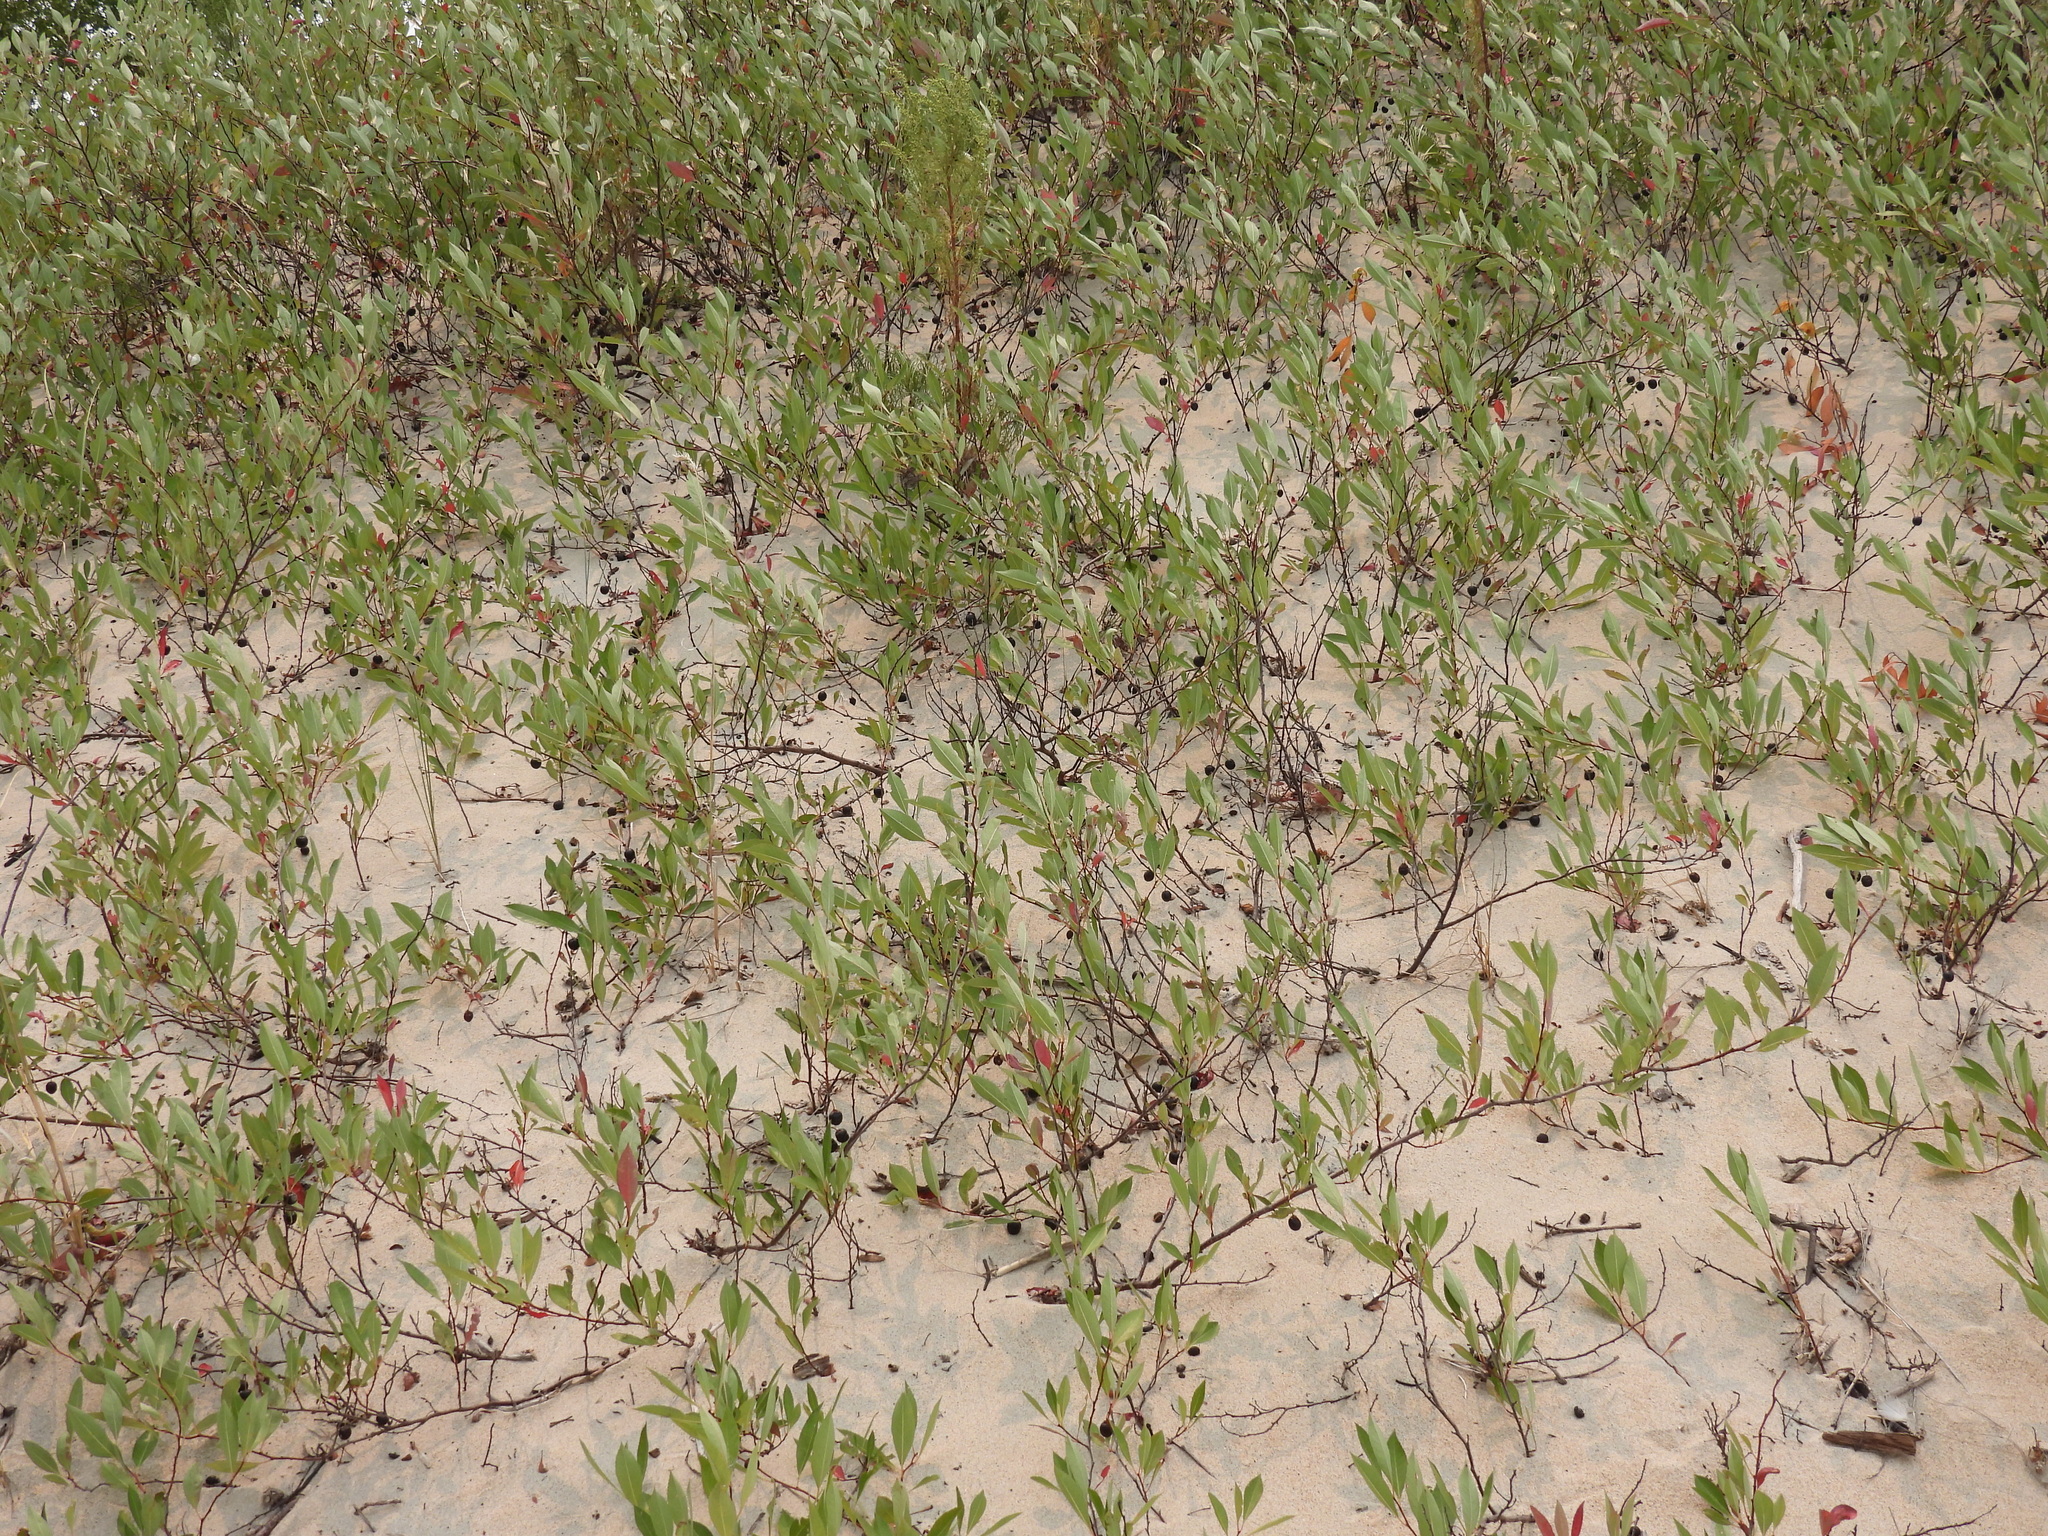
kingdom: Plantae
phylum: Tracheophyta
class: Magnoliopsida
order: Rosales
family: Rosaceae
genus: Prunus
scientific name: Prunus pumila
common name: Dwarf cherry
